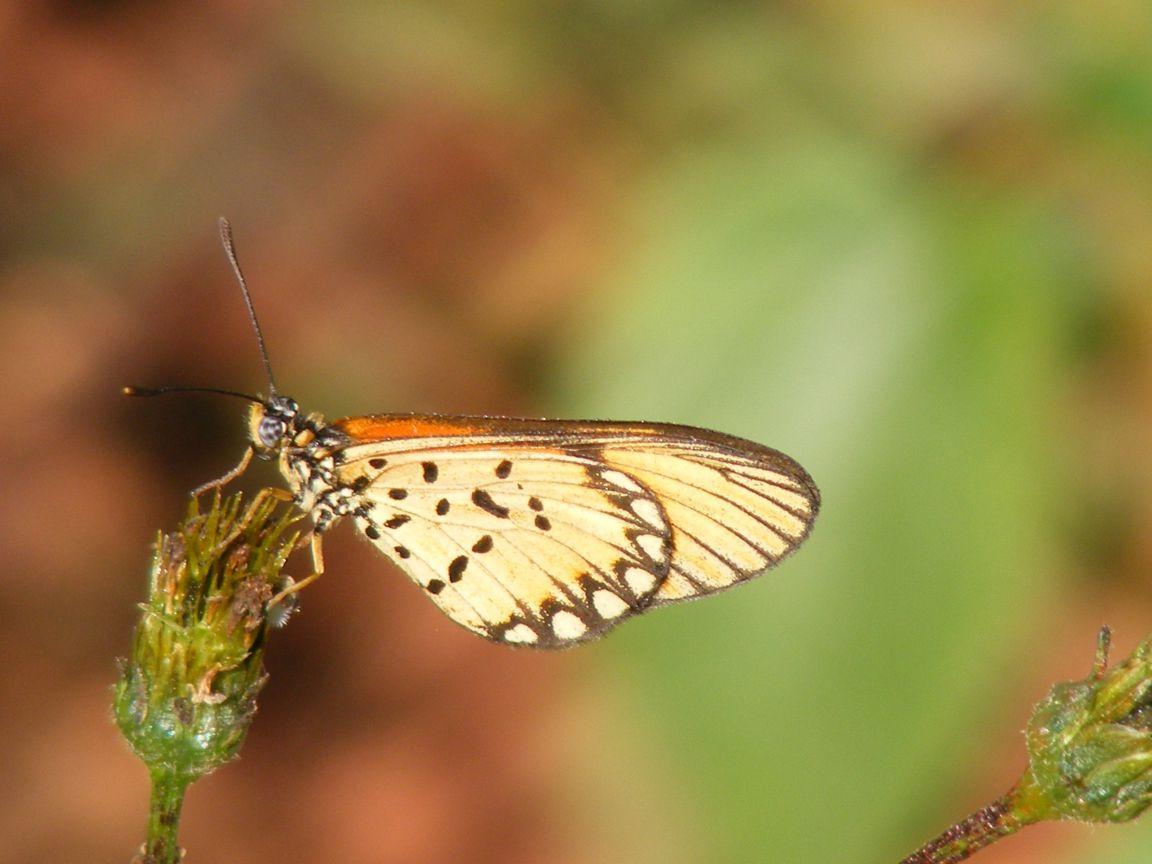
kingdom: Animalia
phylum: Arthropoda
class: Insecta
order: Lepidoptera
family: Nymphalidae
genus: Acraea
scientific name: Acraea Telchinia serena
